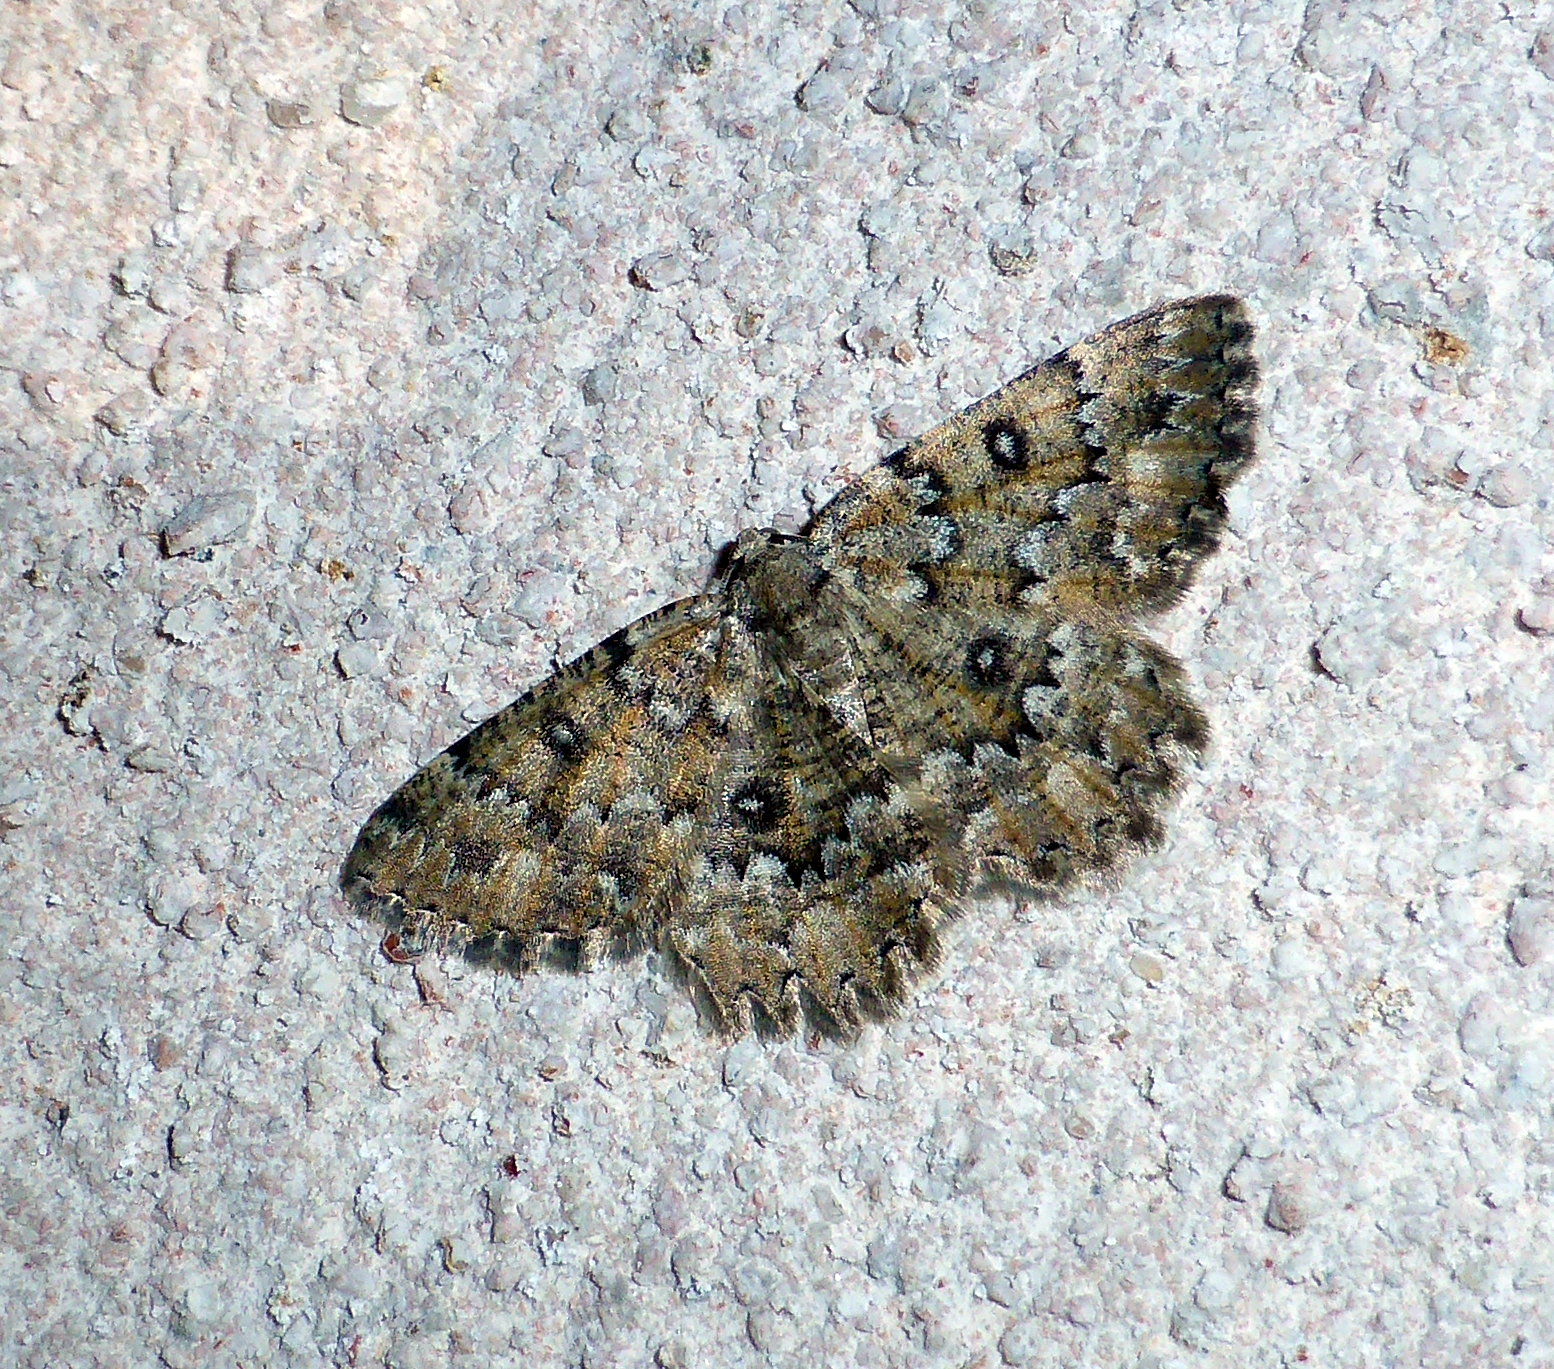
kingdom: Animalia
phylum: Arthropoda
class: Insecta
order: Lepidoptera
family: Geometridae
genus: Charissa
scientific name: Charissa obscurata
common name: Annulet
